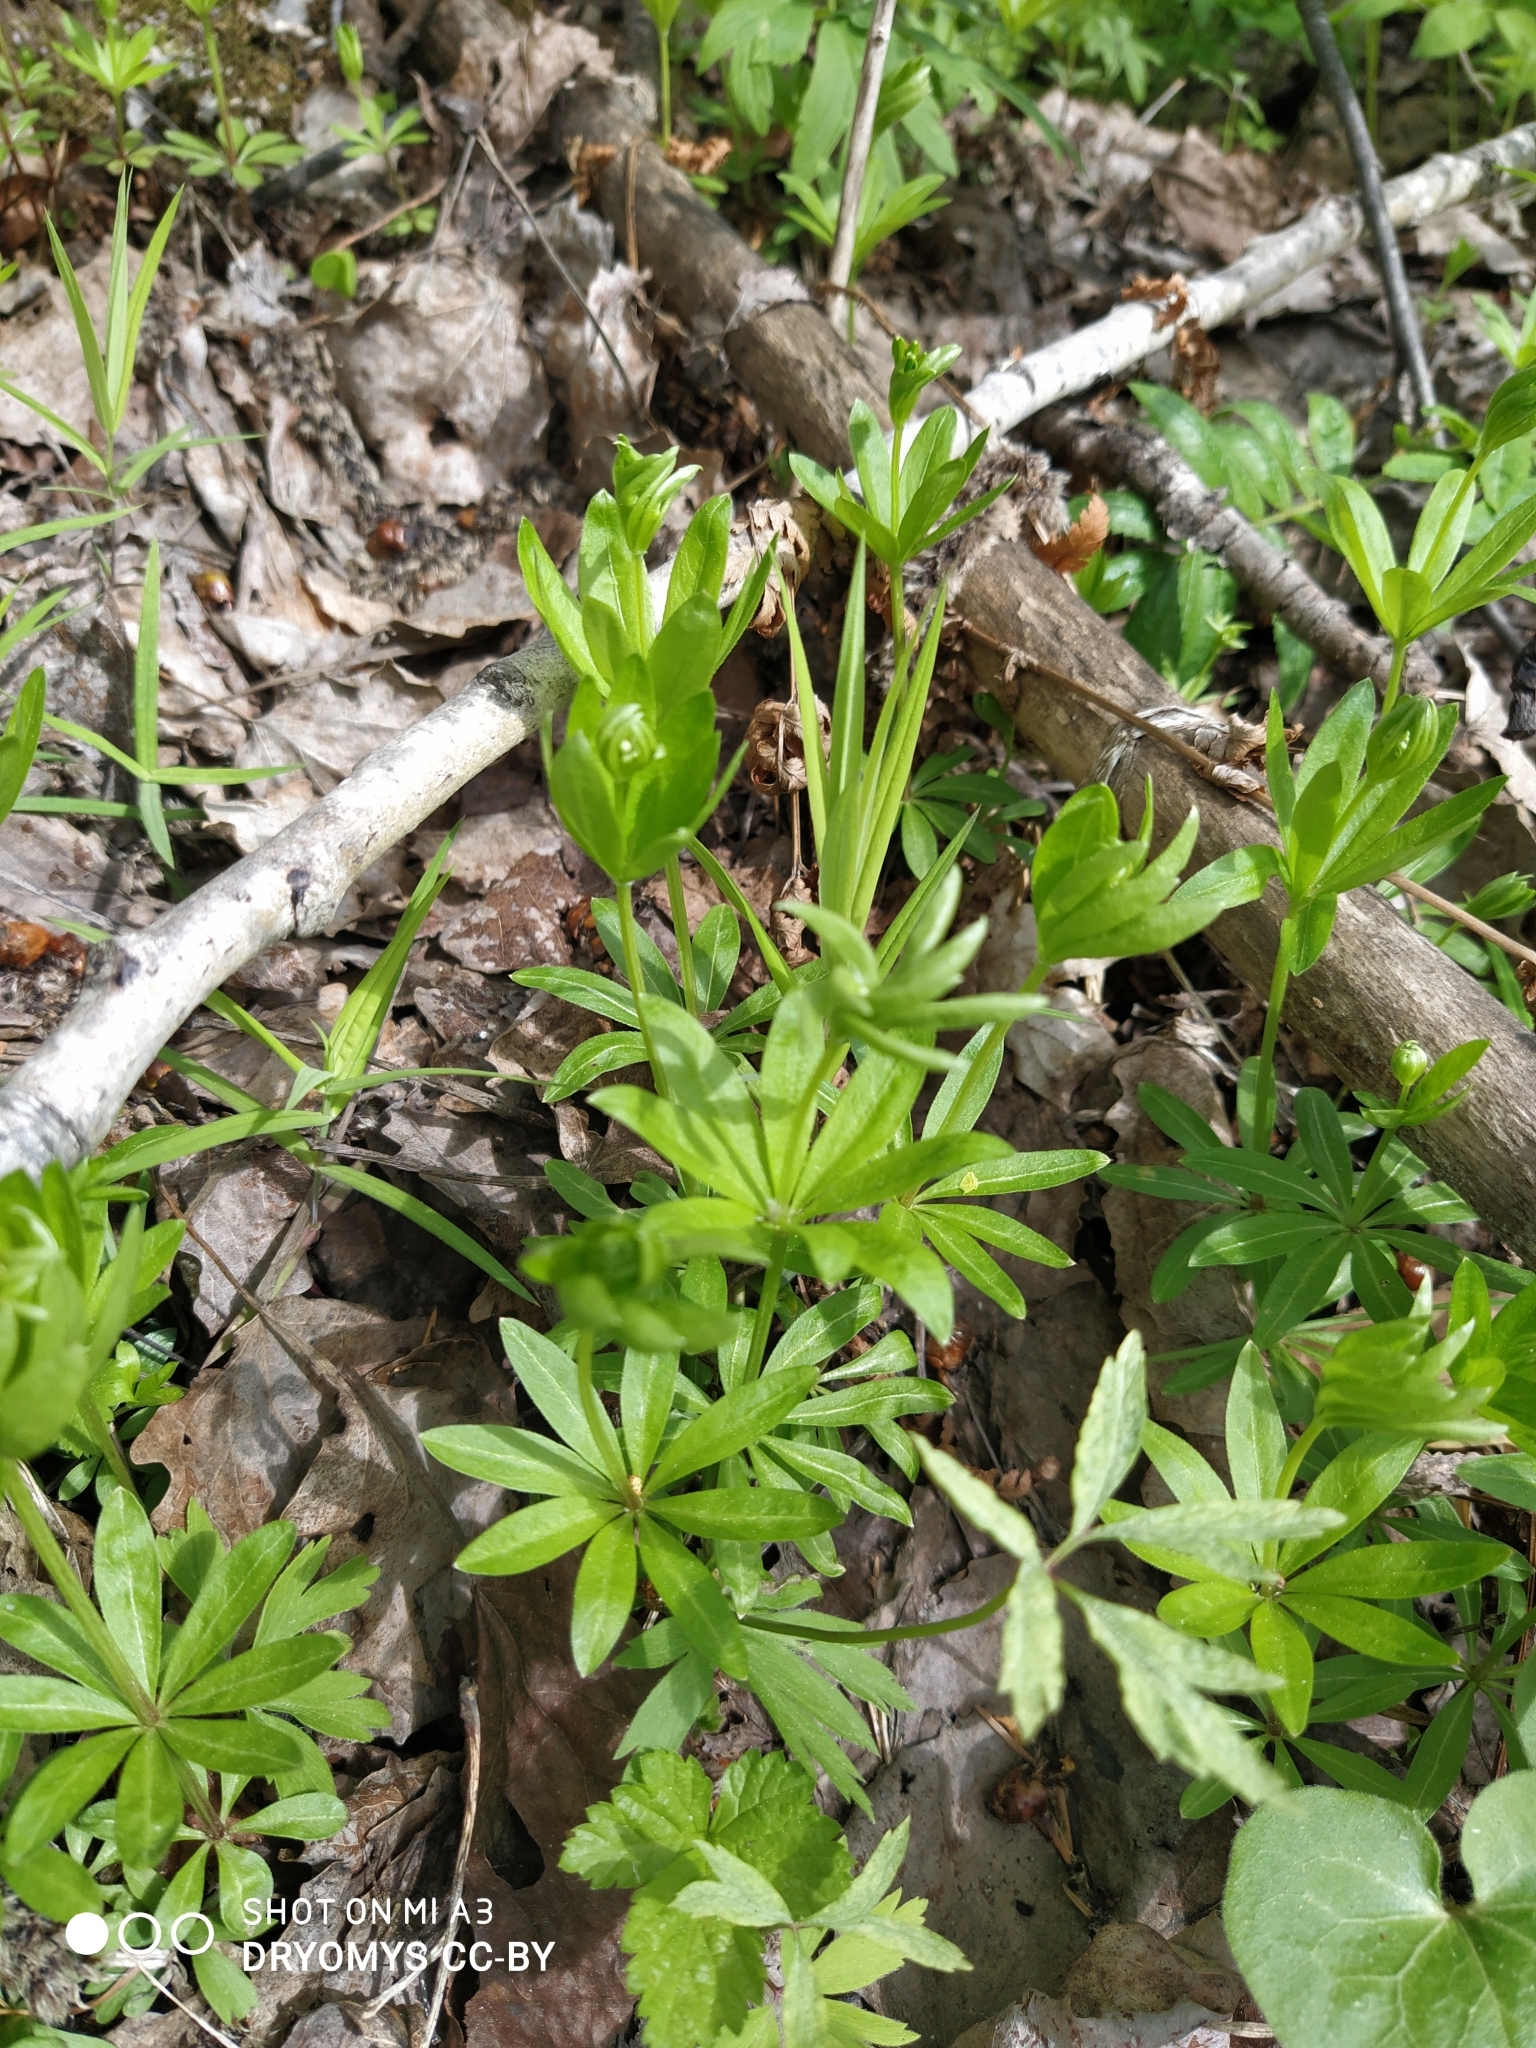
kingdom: Plantae
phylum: Tracheophyta
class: Magnoliopsida
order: Gentianales
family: Rubiaceae
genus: Galium
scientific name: Galium odoratum
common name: Sweet woodruff
